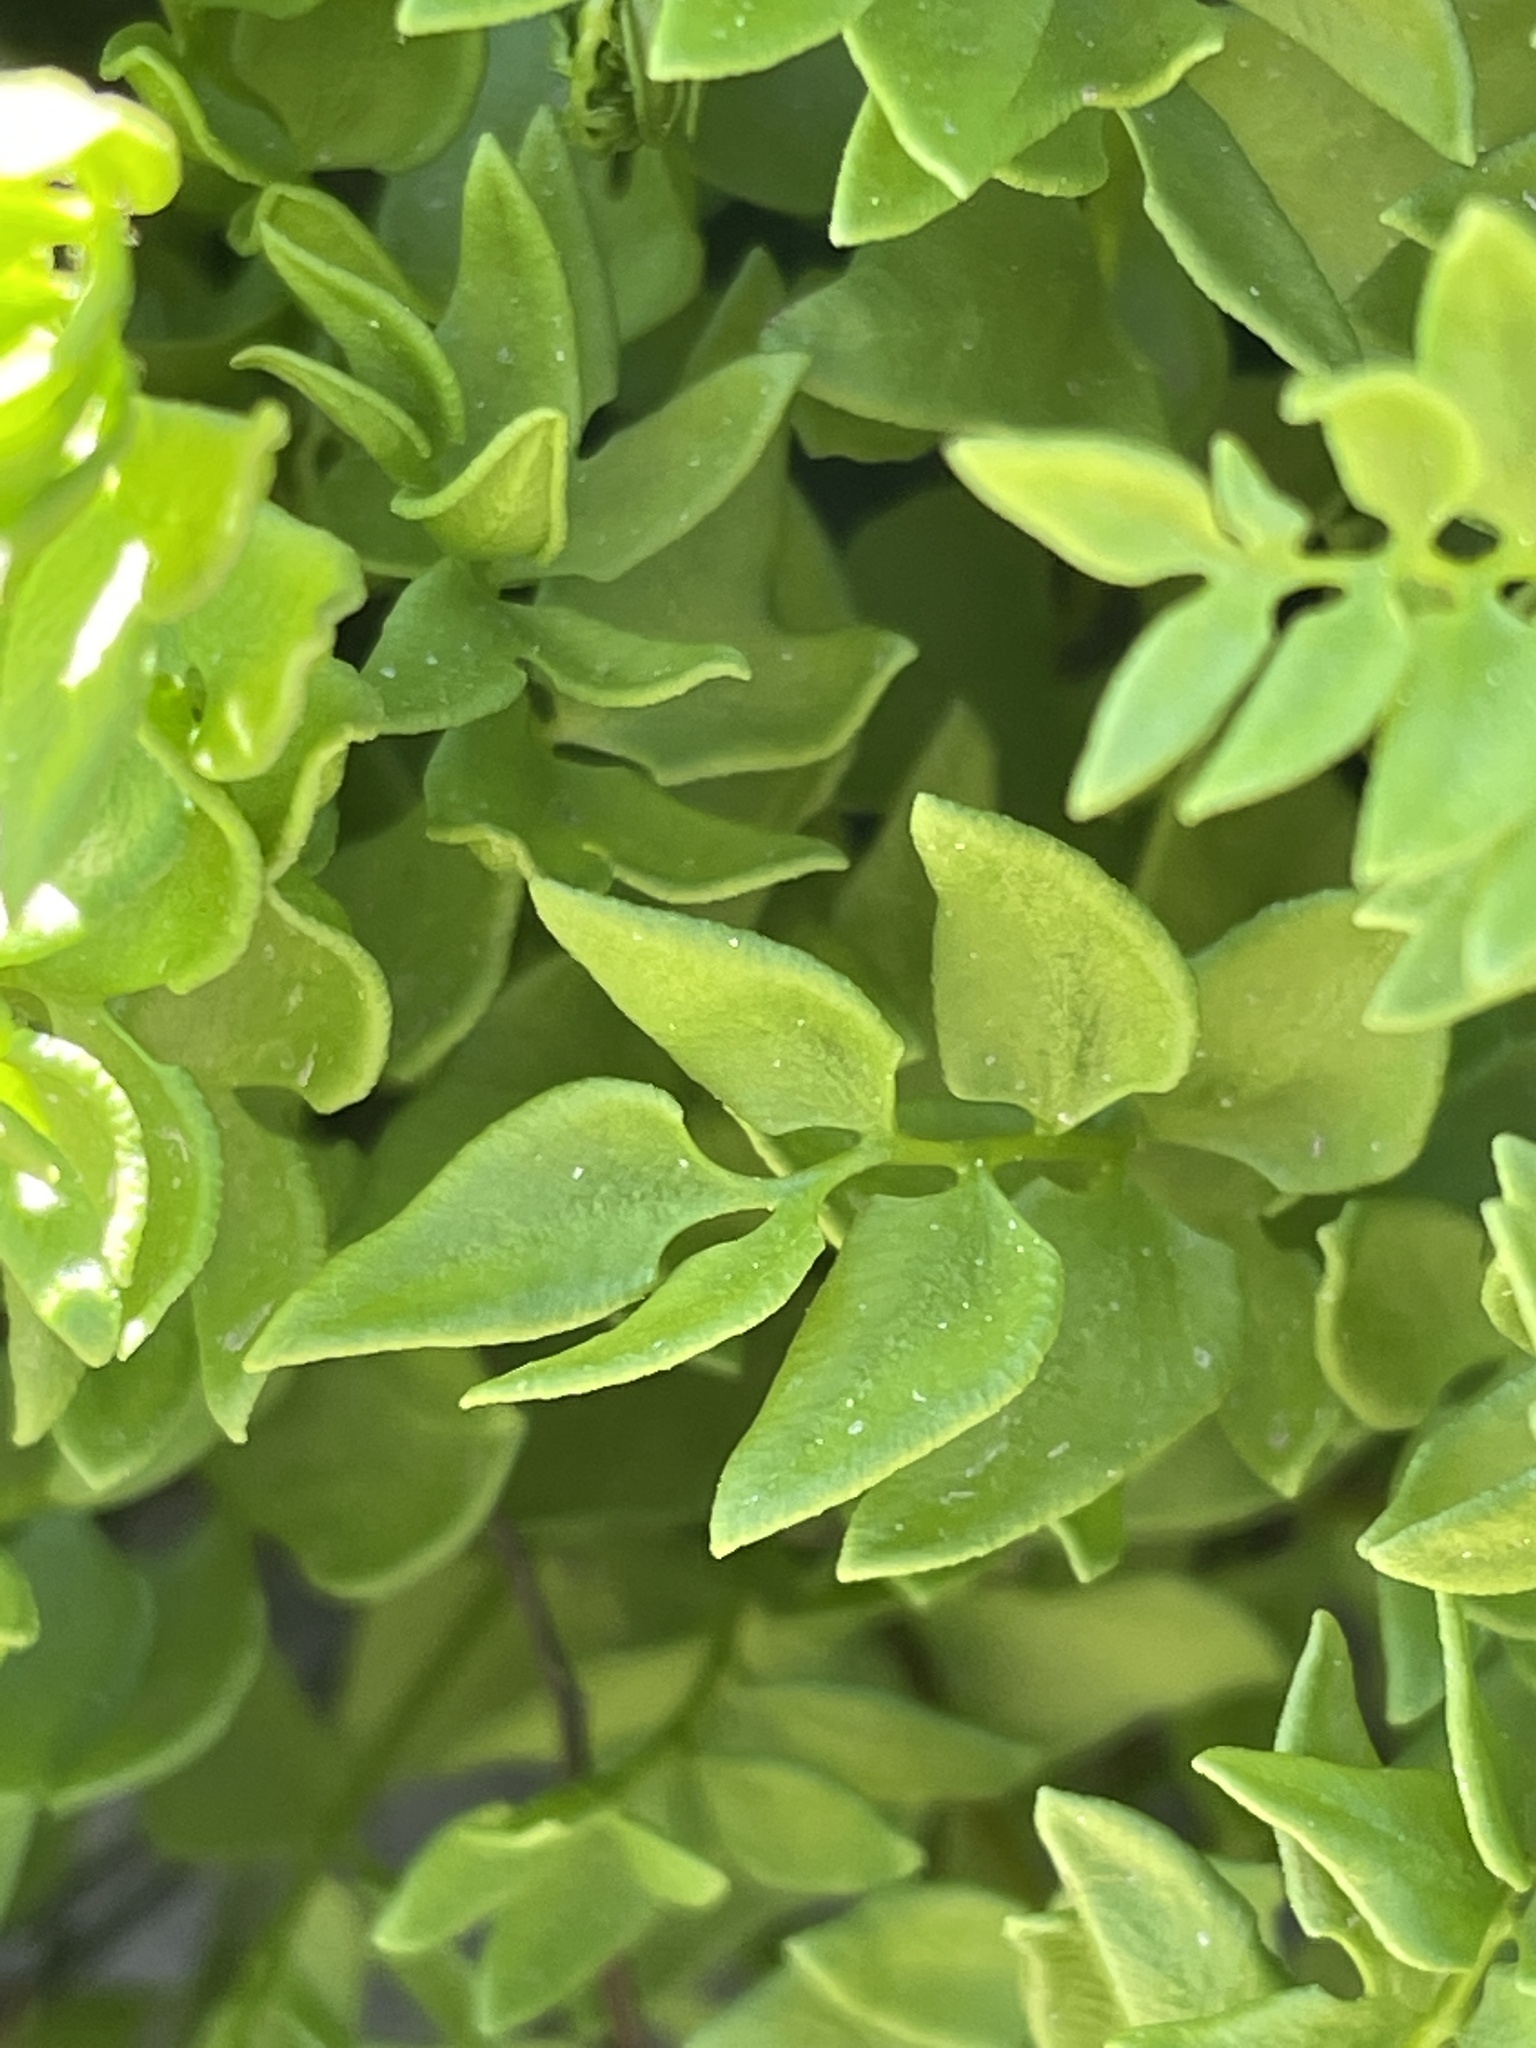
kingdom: Plantae
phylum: Tracheophyta
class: Polypodiopsida
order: Polypodiales
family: Pteridaceae
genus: Pellaea
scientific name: Pellaea breweri
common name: Brewer's cliffbrake
